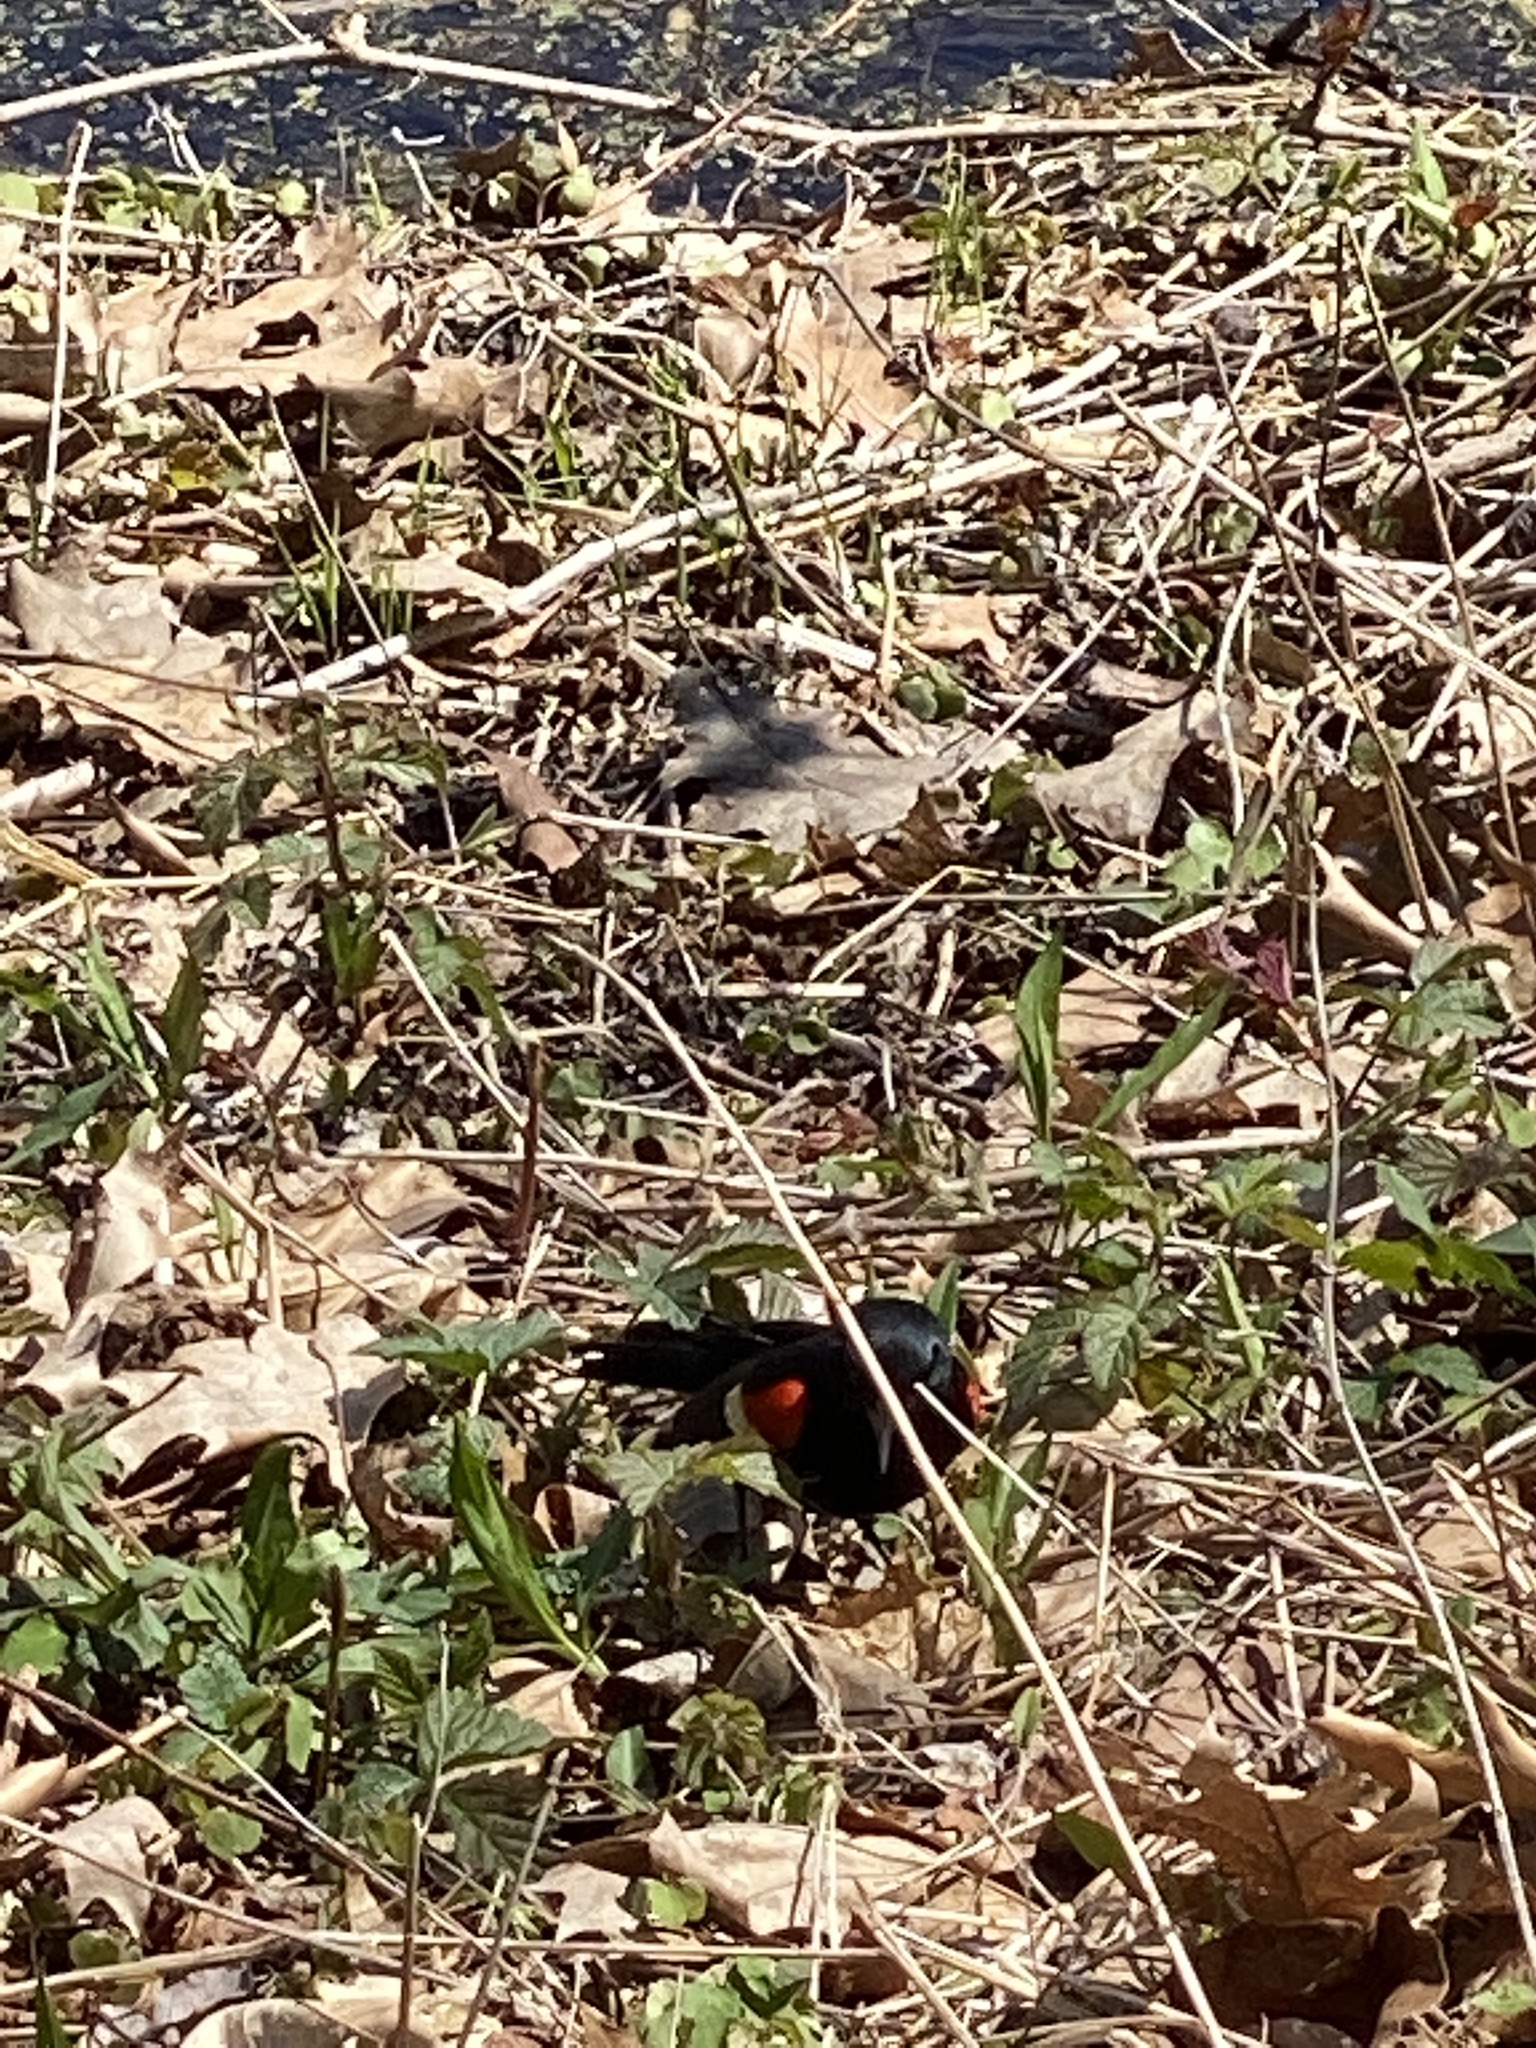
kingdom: Animalia
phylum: Chordata
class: Aves
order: Passeriformes
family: Icteridae
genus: Agelaius
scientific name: Agelaius phoeniceus
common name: Red-winged blackbird
